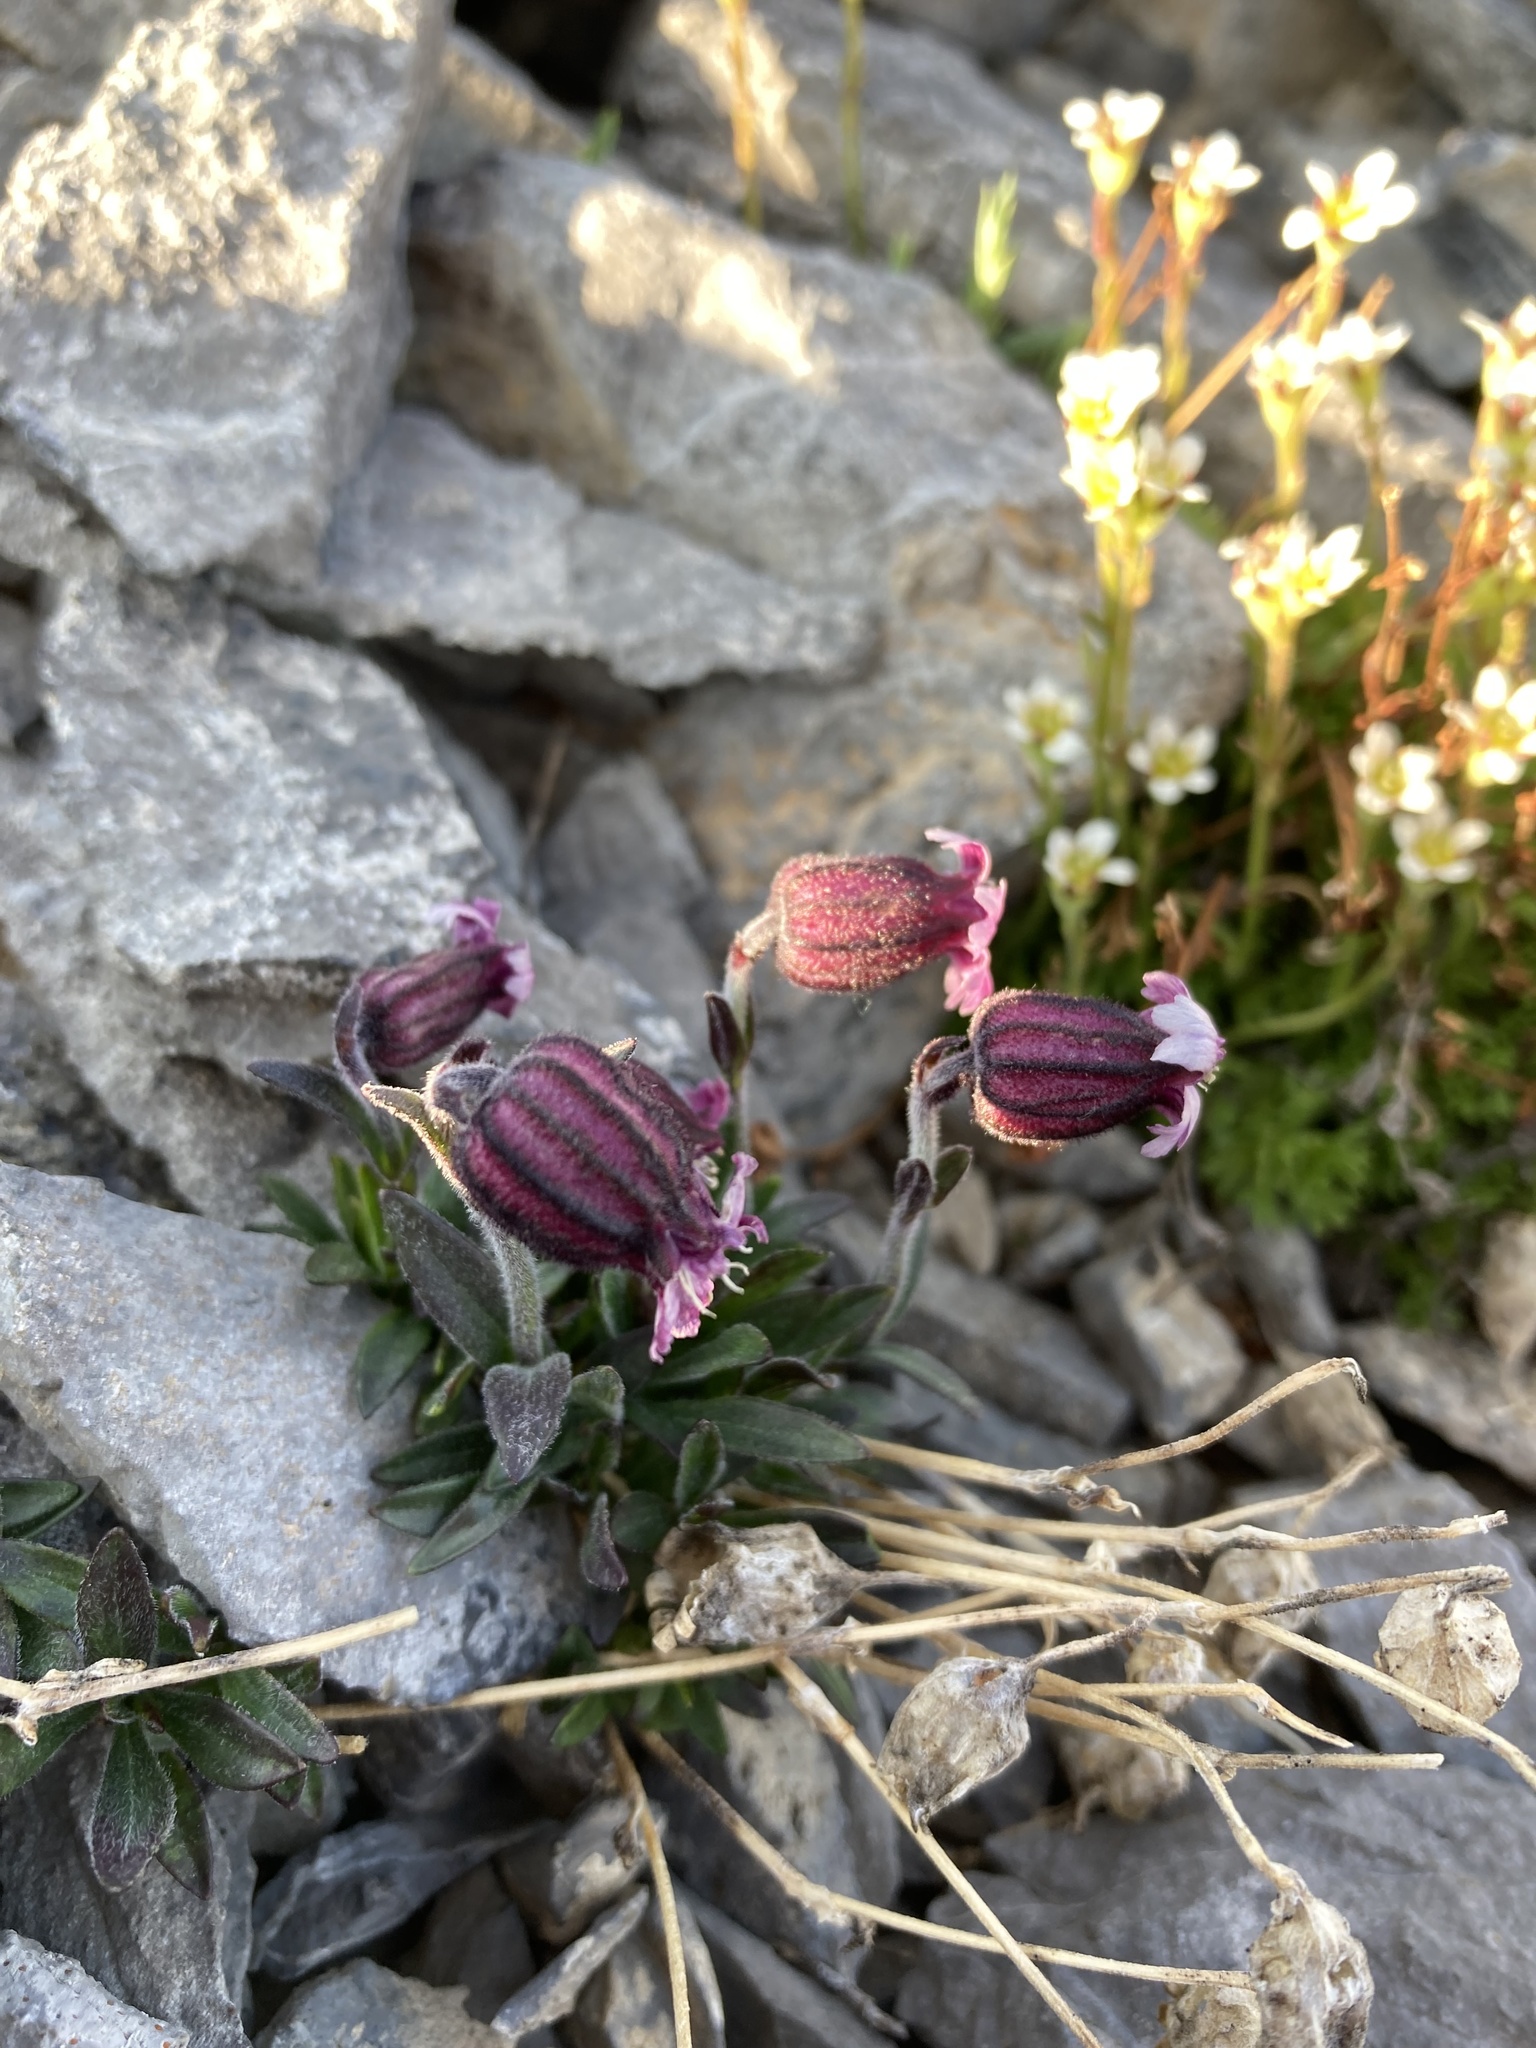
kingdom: Plantae
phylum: Tracheophyta
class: Magnoliopsida
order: Caryophyllales
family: Caryophyllaceae
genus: Silene
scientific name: Silene uralensis
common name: Nodding campion
